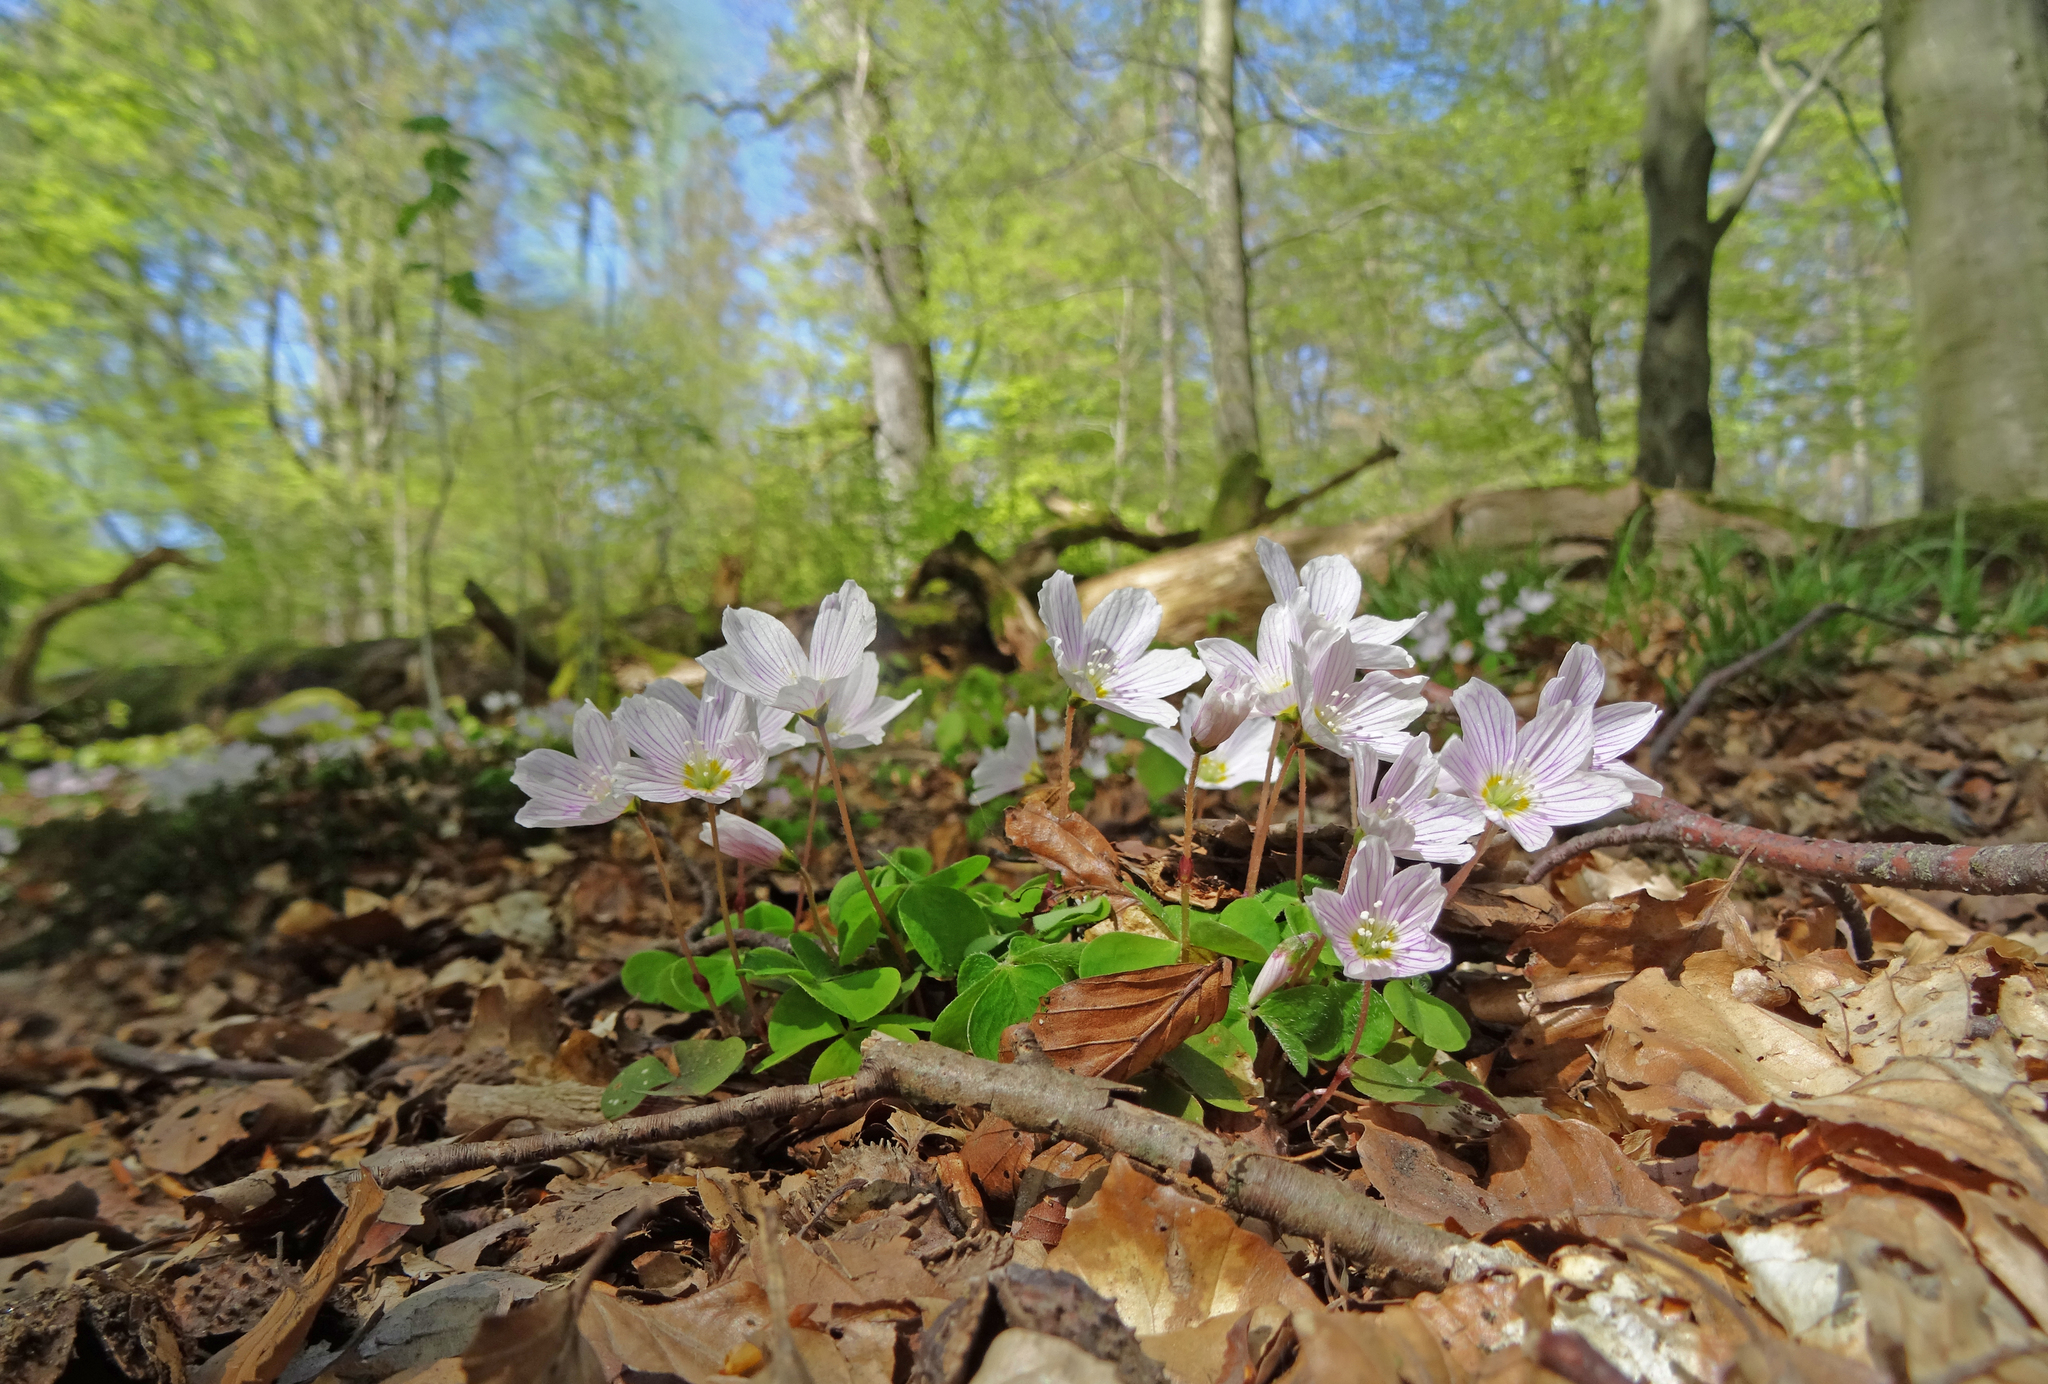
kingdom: Plantae
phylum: Tracheophyta
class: Magnoliopsida
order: Oxalidales
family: Oxalidaceae
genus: Oxalis
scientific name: Oxalis acetosella
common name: Wood-sorrel
